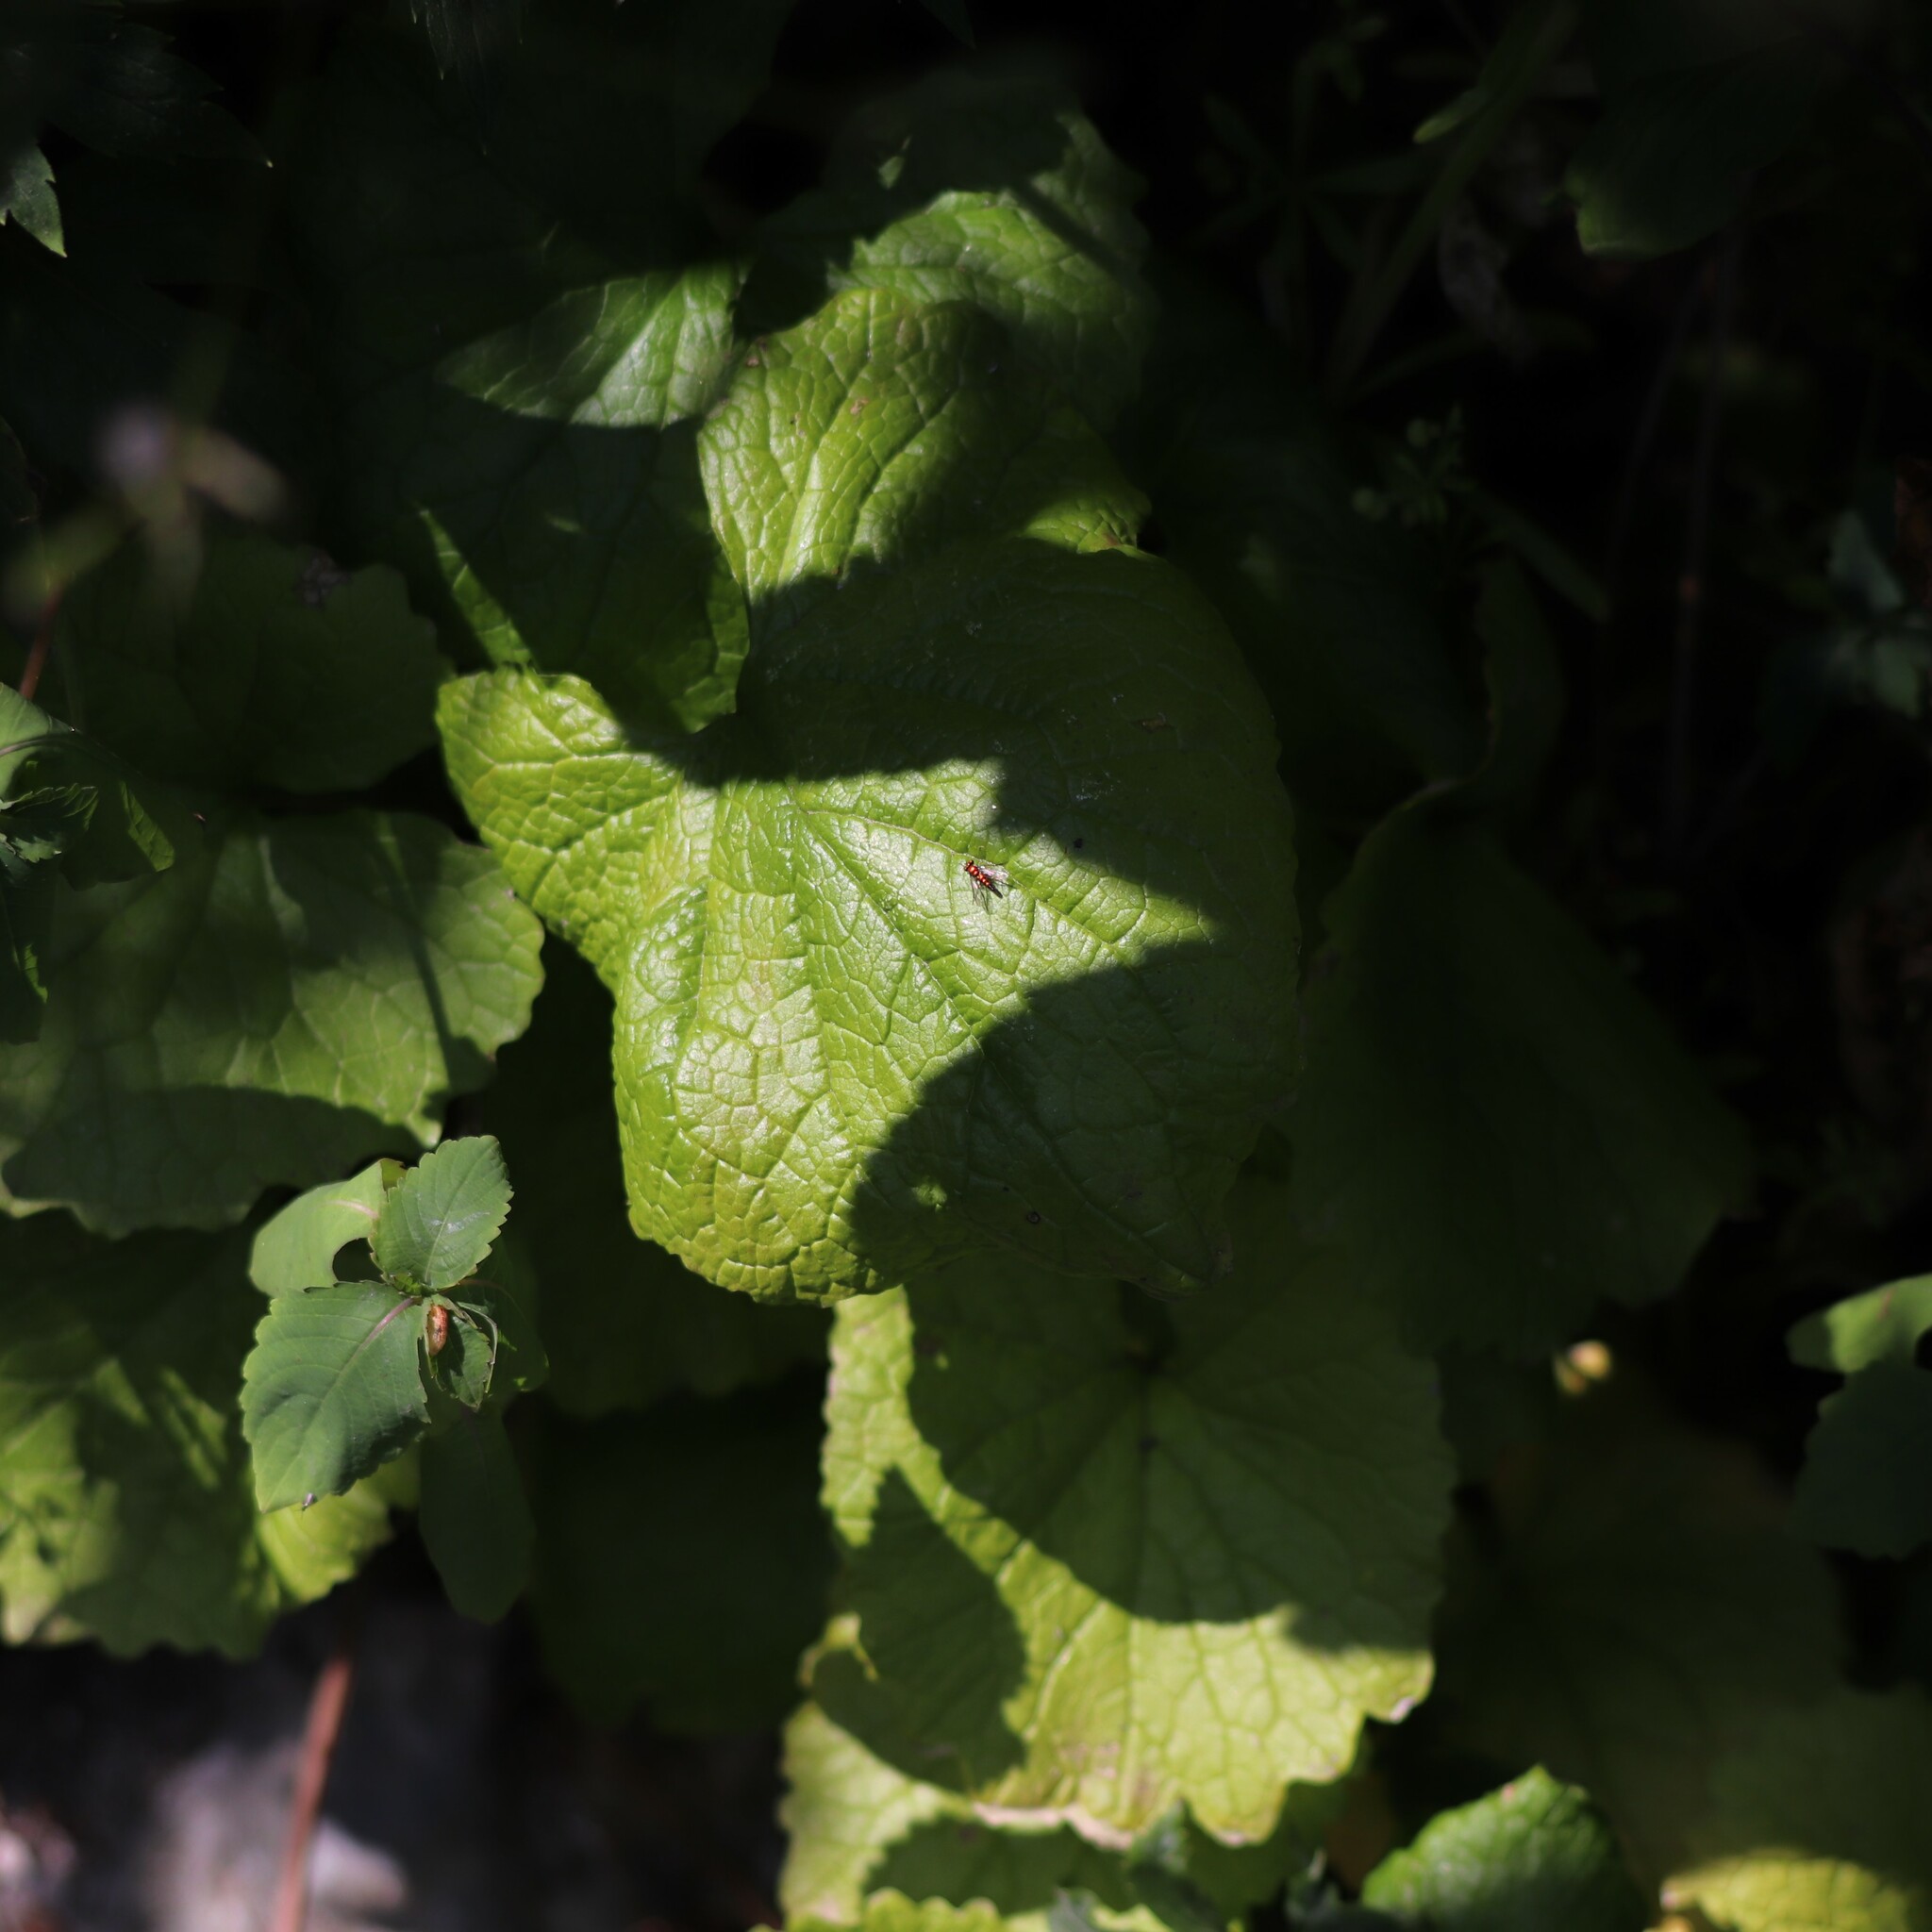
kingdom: Plantae
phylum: Tracheophyta
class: Magnoliopsida
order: Brassicales
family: Brassicaceae
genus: Alliaria
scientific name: Alliaria petiolata
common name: Garlic mustard
